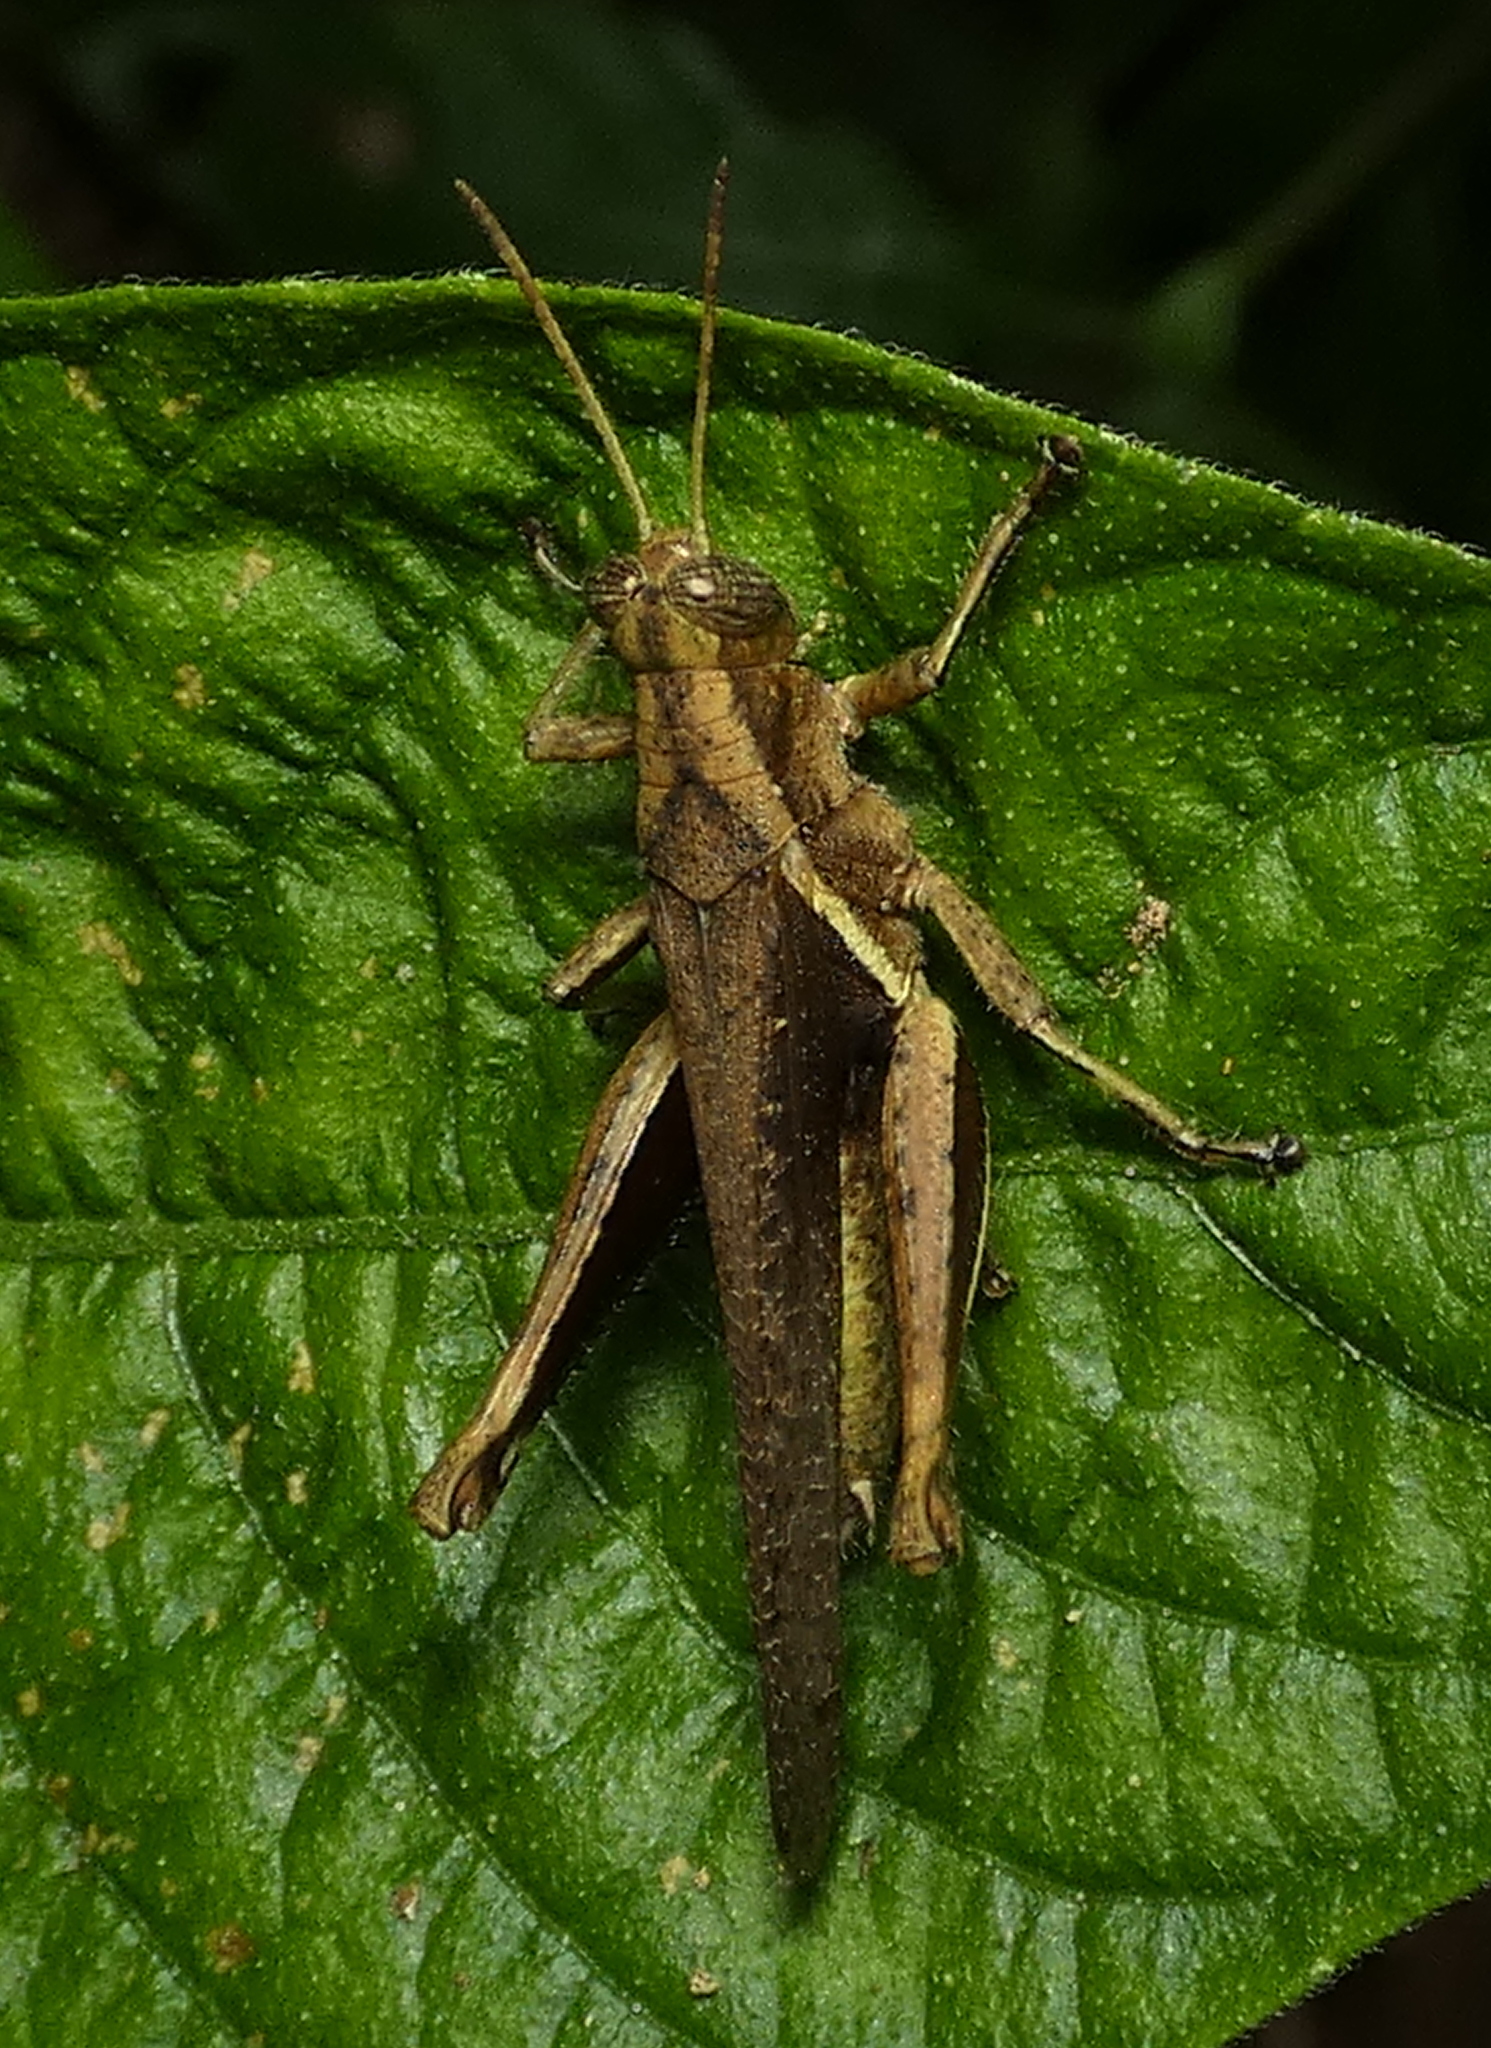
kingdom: Animalia
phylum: Arthropoda
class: Insecta
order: Orthoptera
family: Acrididae
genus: Abracris
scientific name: Abracris flavolineata
